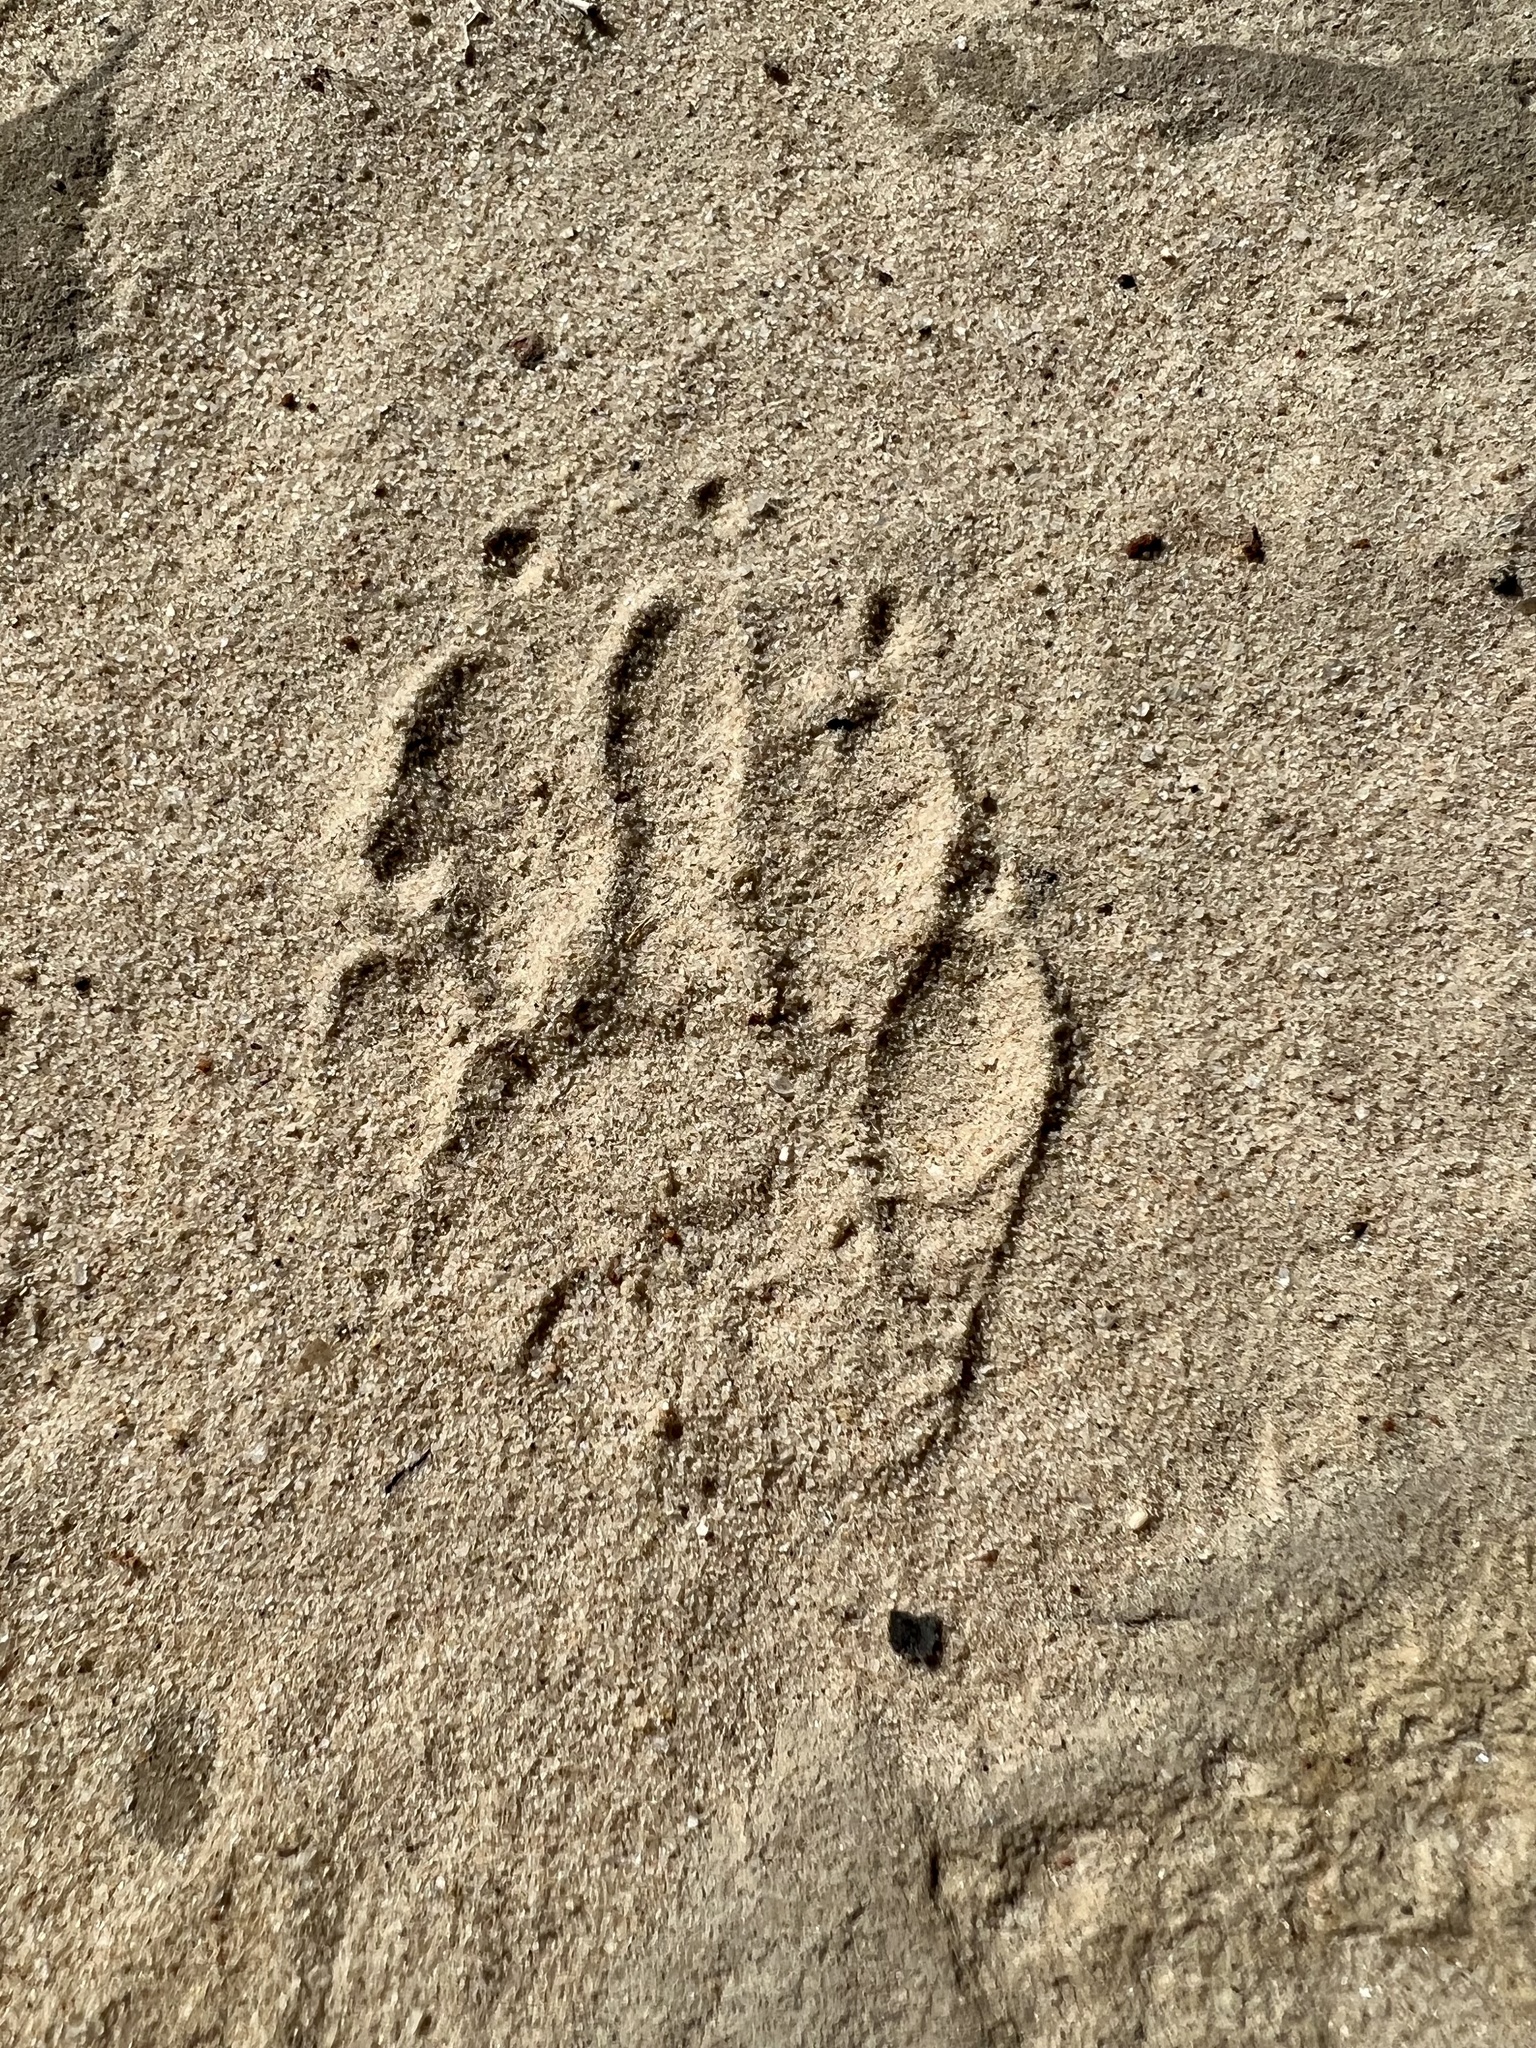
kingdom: Animalia
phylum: Chordata
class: Mammalia
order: Carnivora
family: Procyonidae
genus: Procyon
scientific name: Procyon lotor
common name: Raccoon
